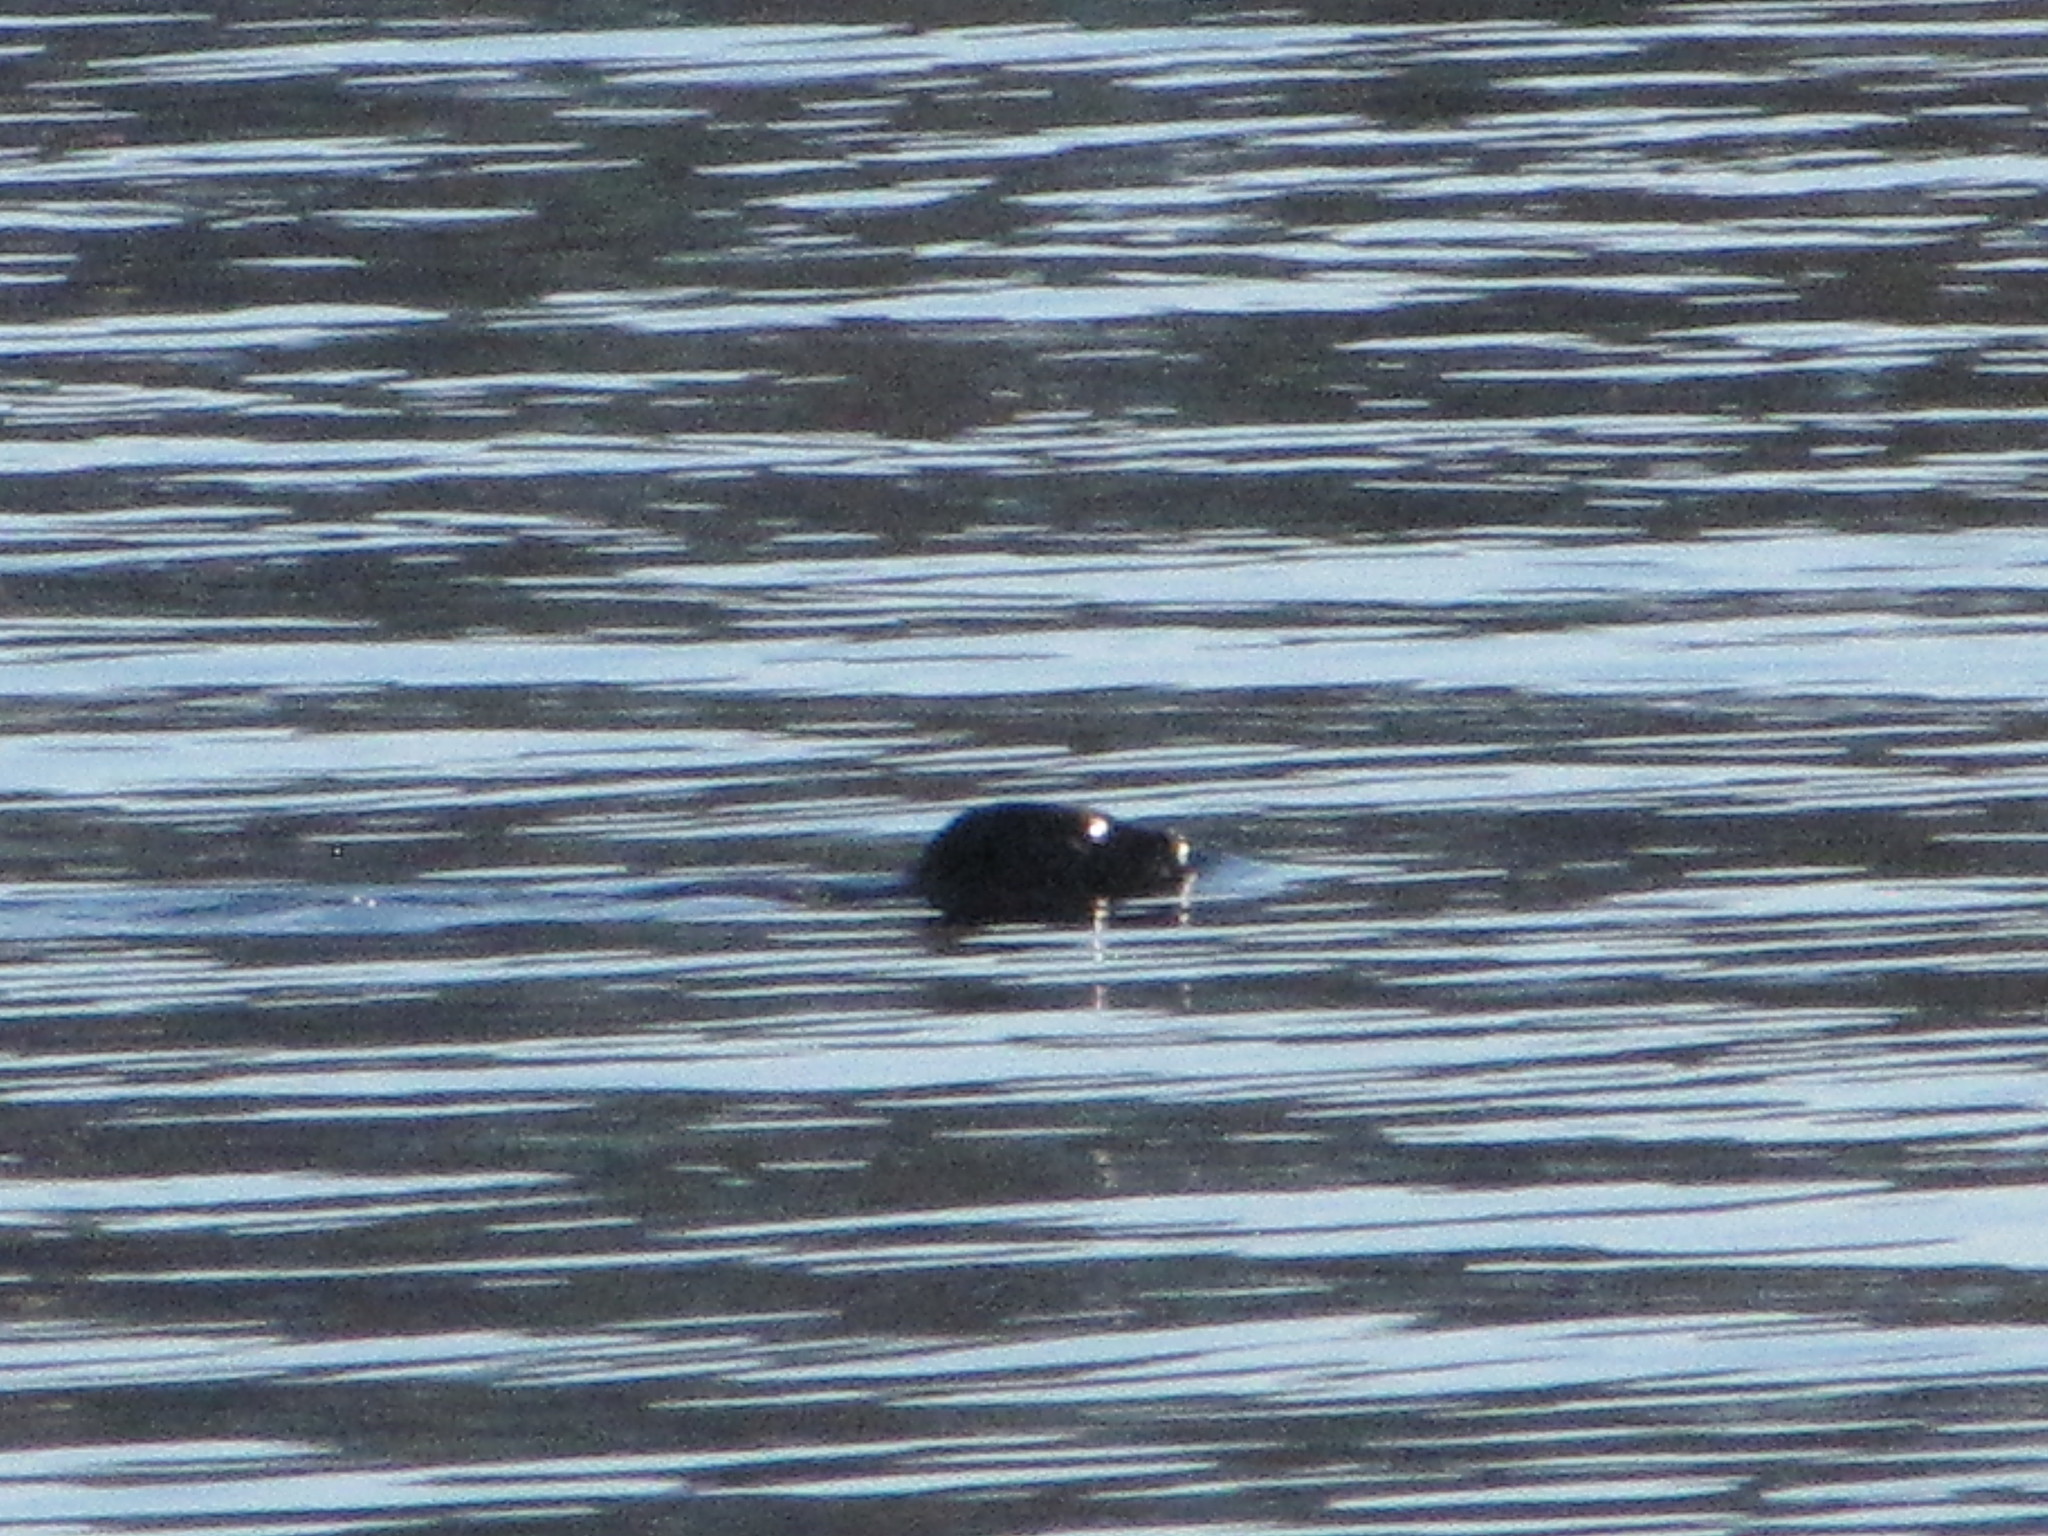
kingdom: Animalia
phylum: Chordata
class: Mammalia
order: Carnivora
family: Phocidae
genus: Phoca
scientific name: Phoca vitulina
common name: Harbor seal
